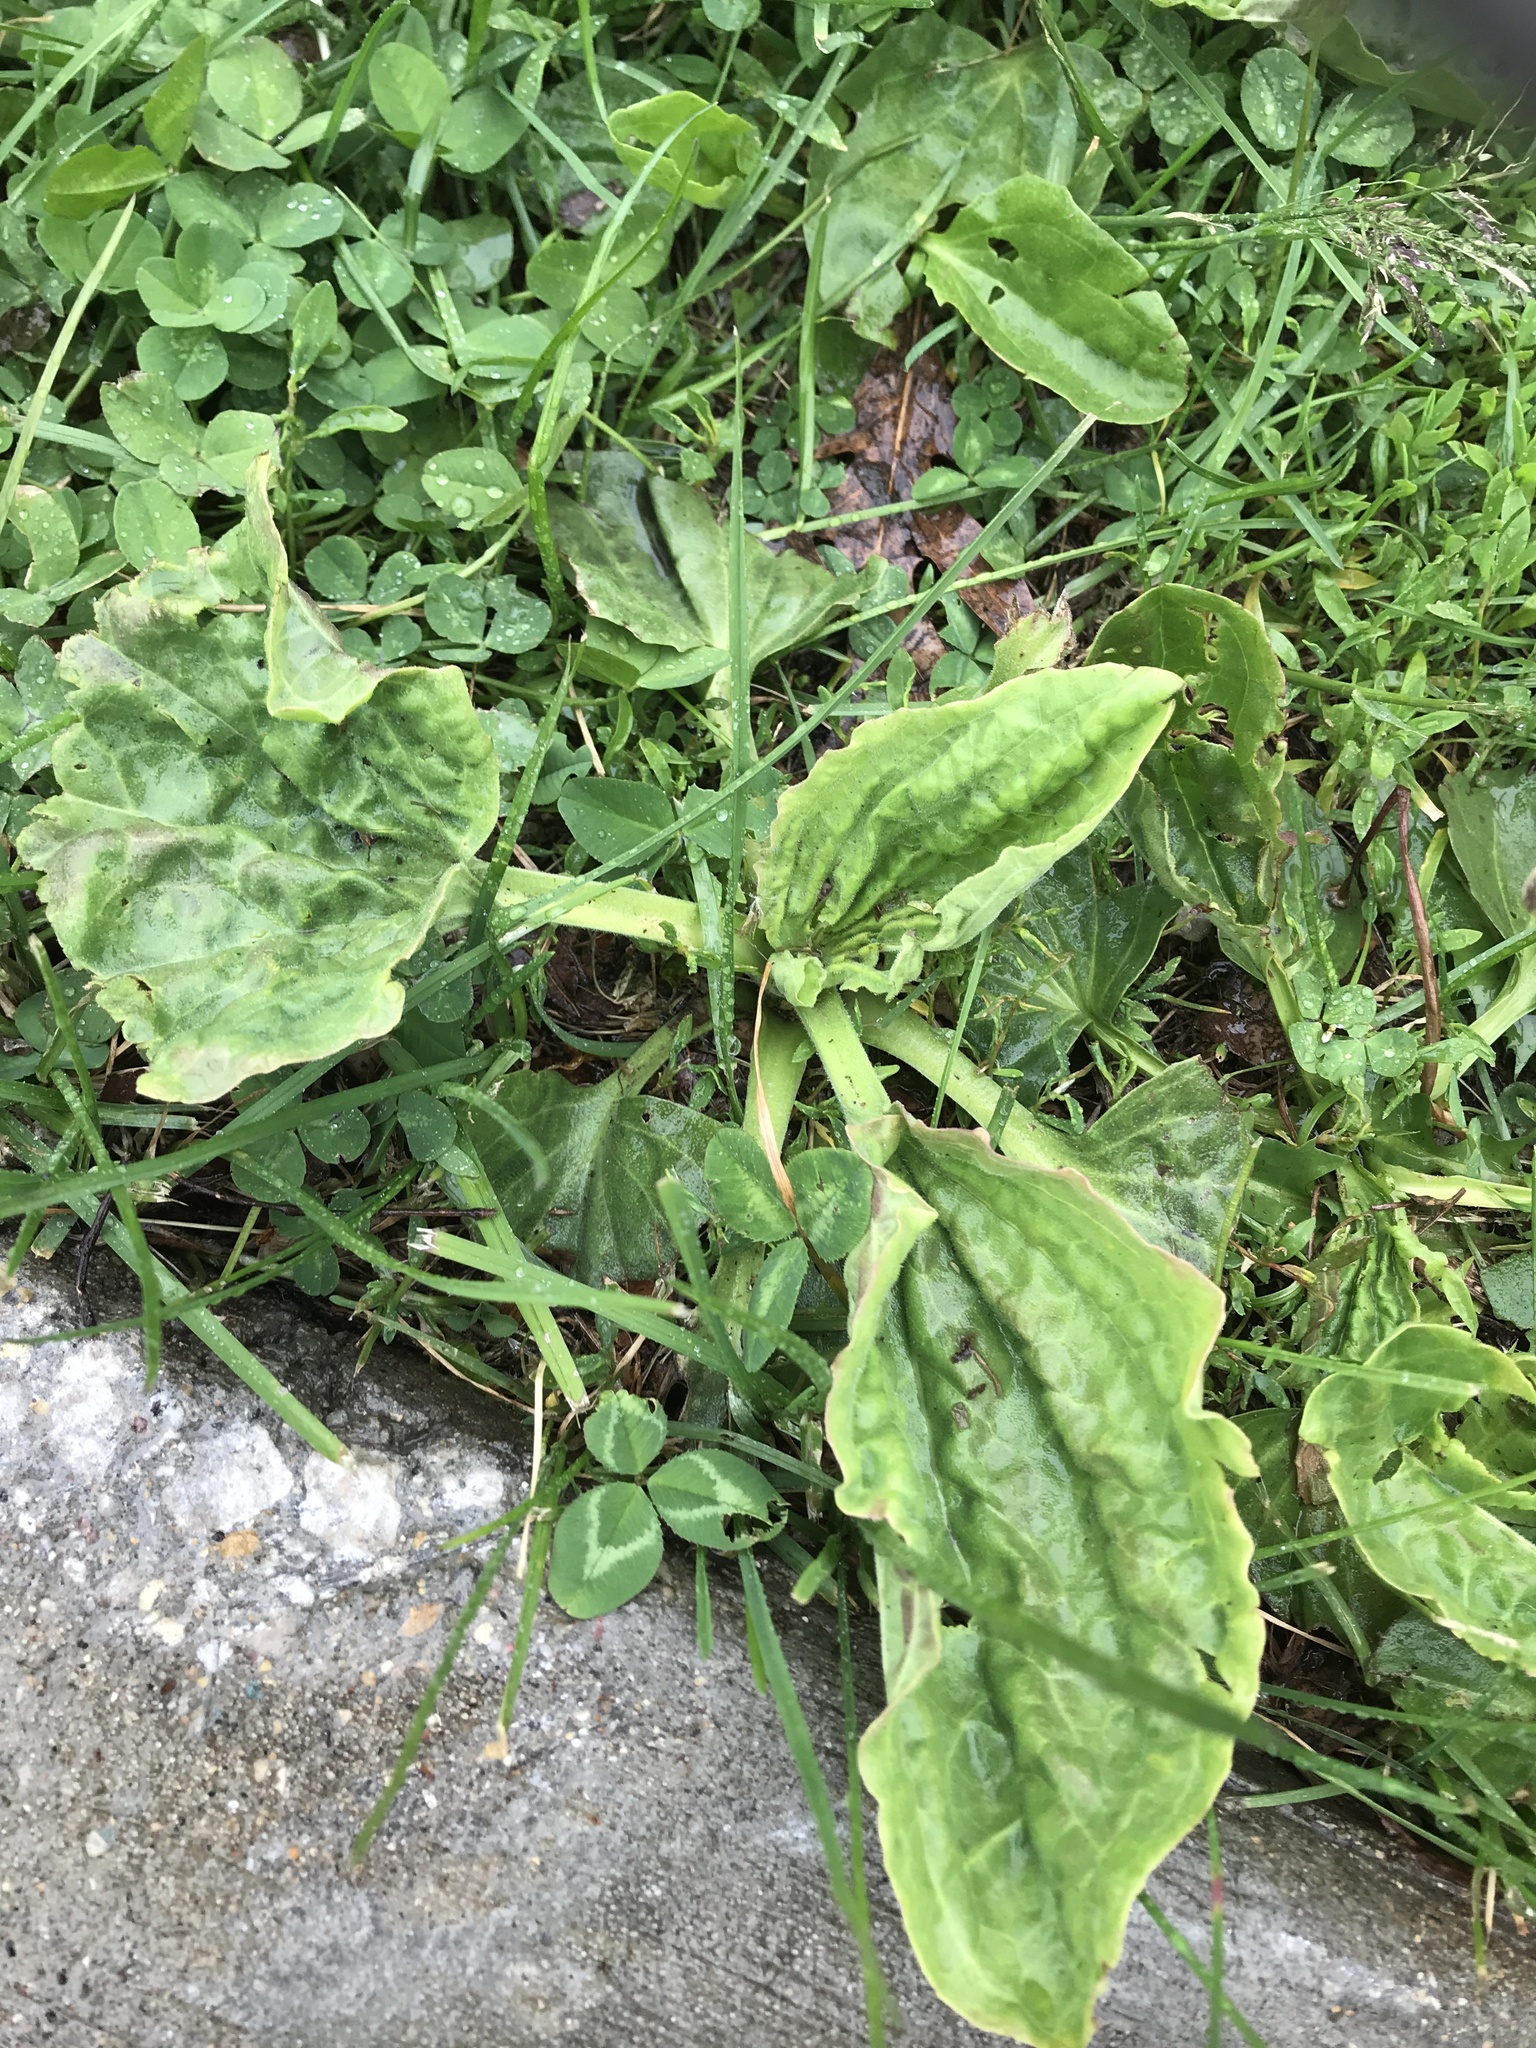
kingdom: Plantae
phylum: Tracheophyta
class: Magnoliopsida
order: Lamiales
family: Plantaginaceae
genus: Plantago
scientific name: Plantago major
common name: Common plantain
